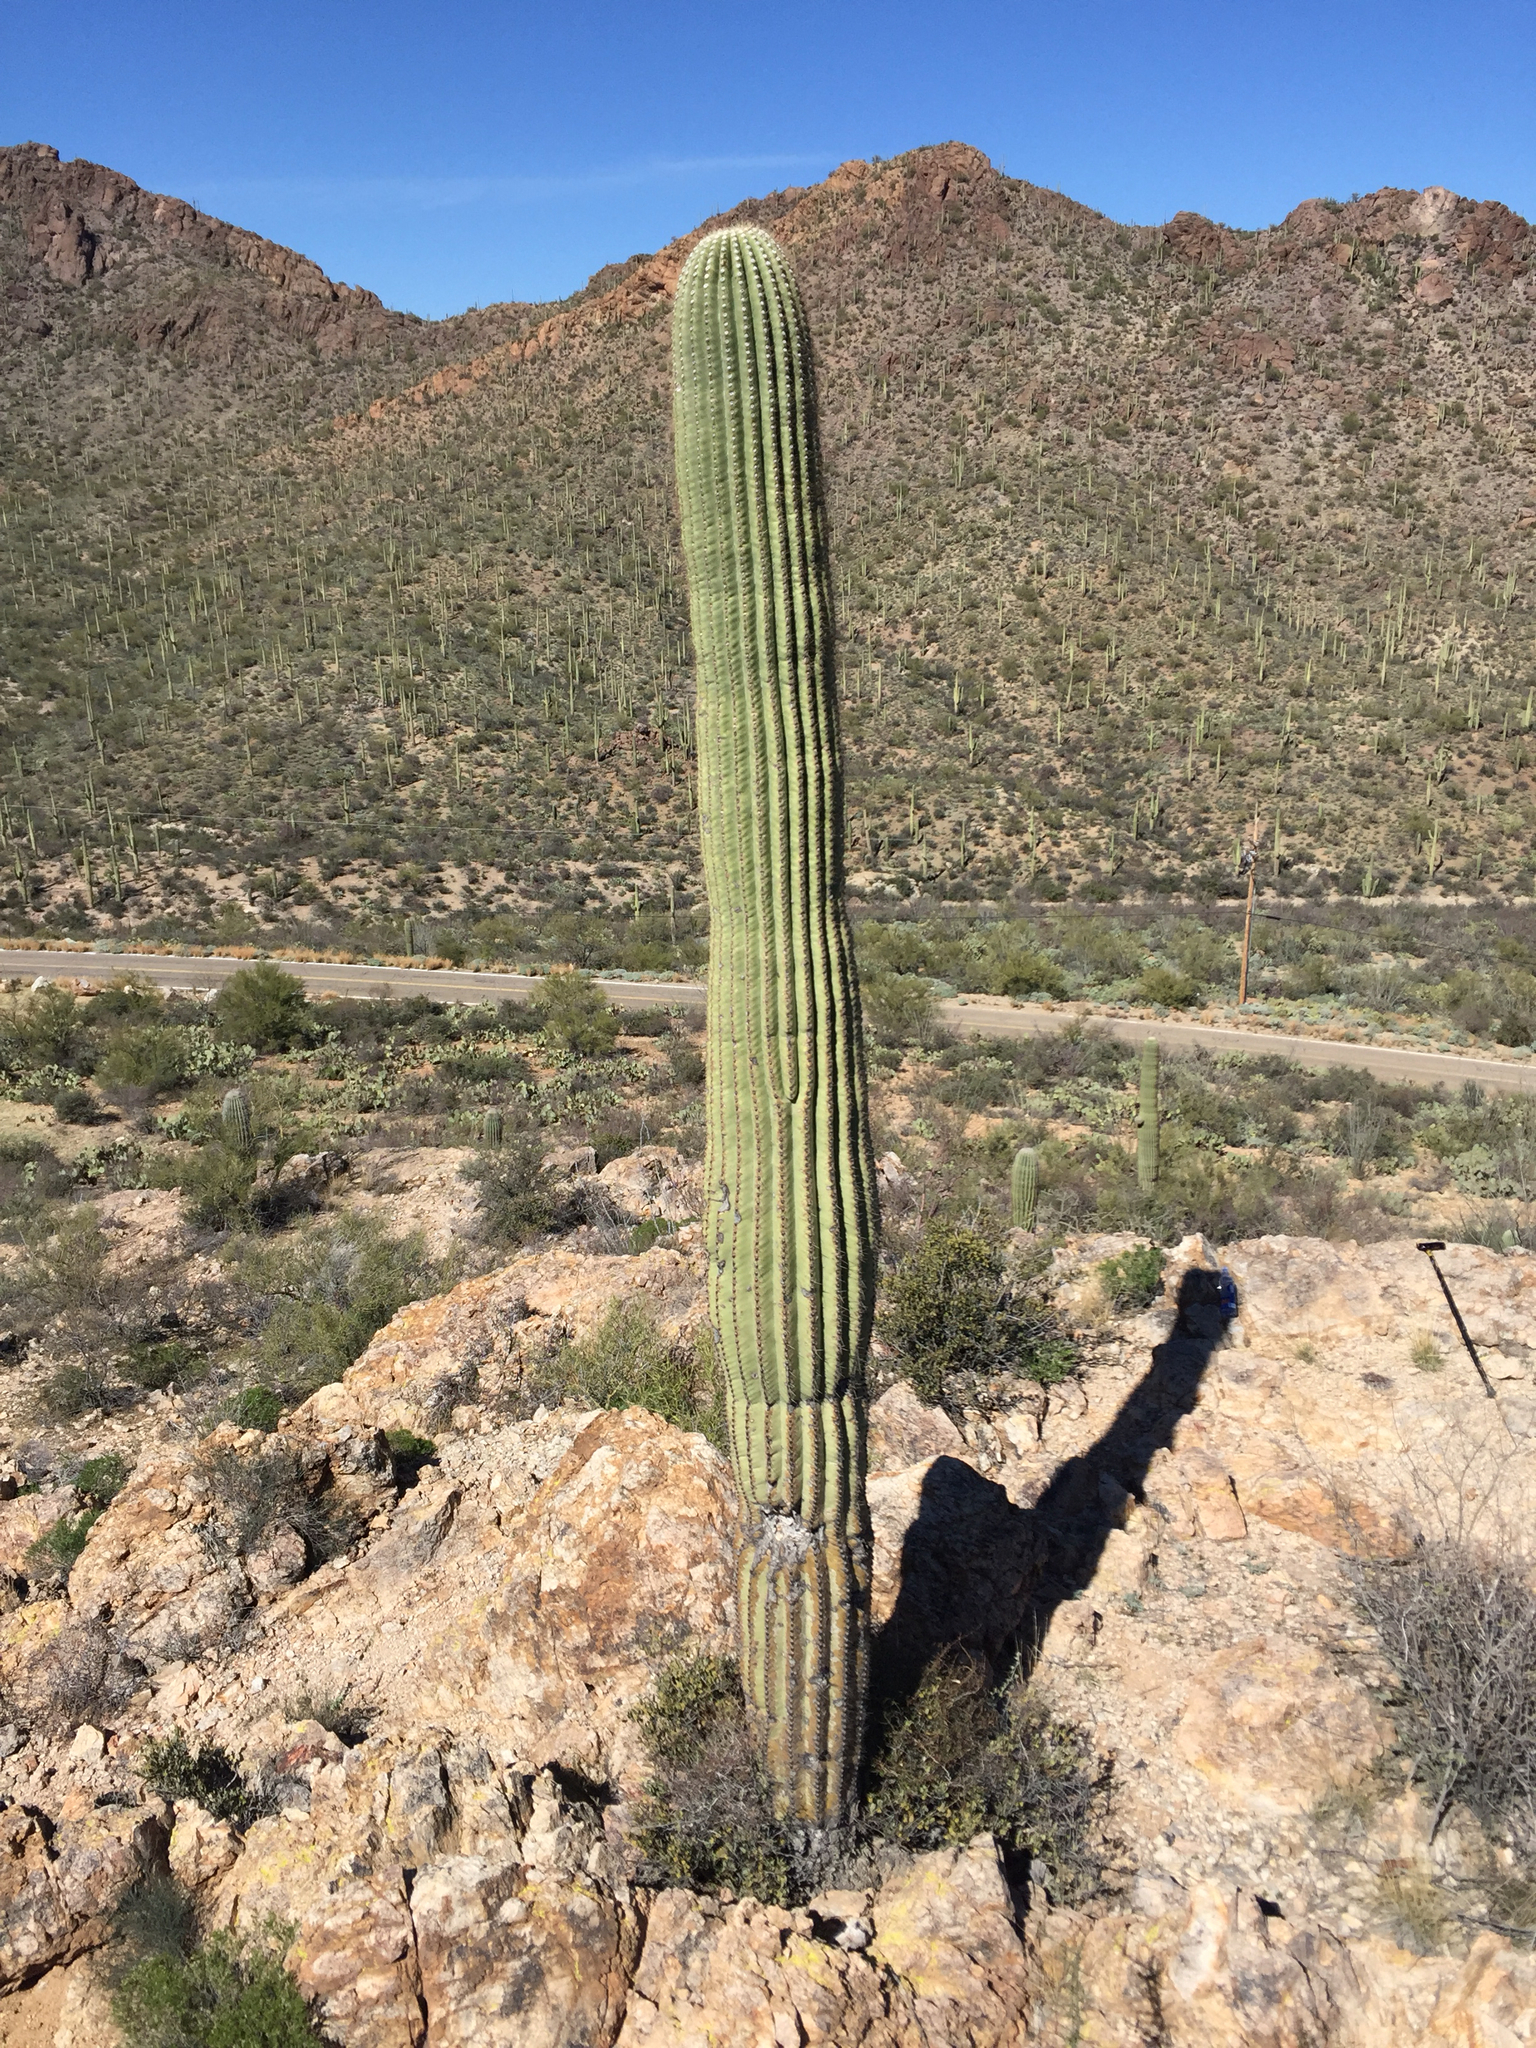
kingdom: Plantae
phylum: Tracheophyta
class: Magnoliopsida
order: Caryophyllales
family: Cactaceae
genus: Carnegiea
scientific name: Carnegiea gigantea
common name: Saguaro
